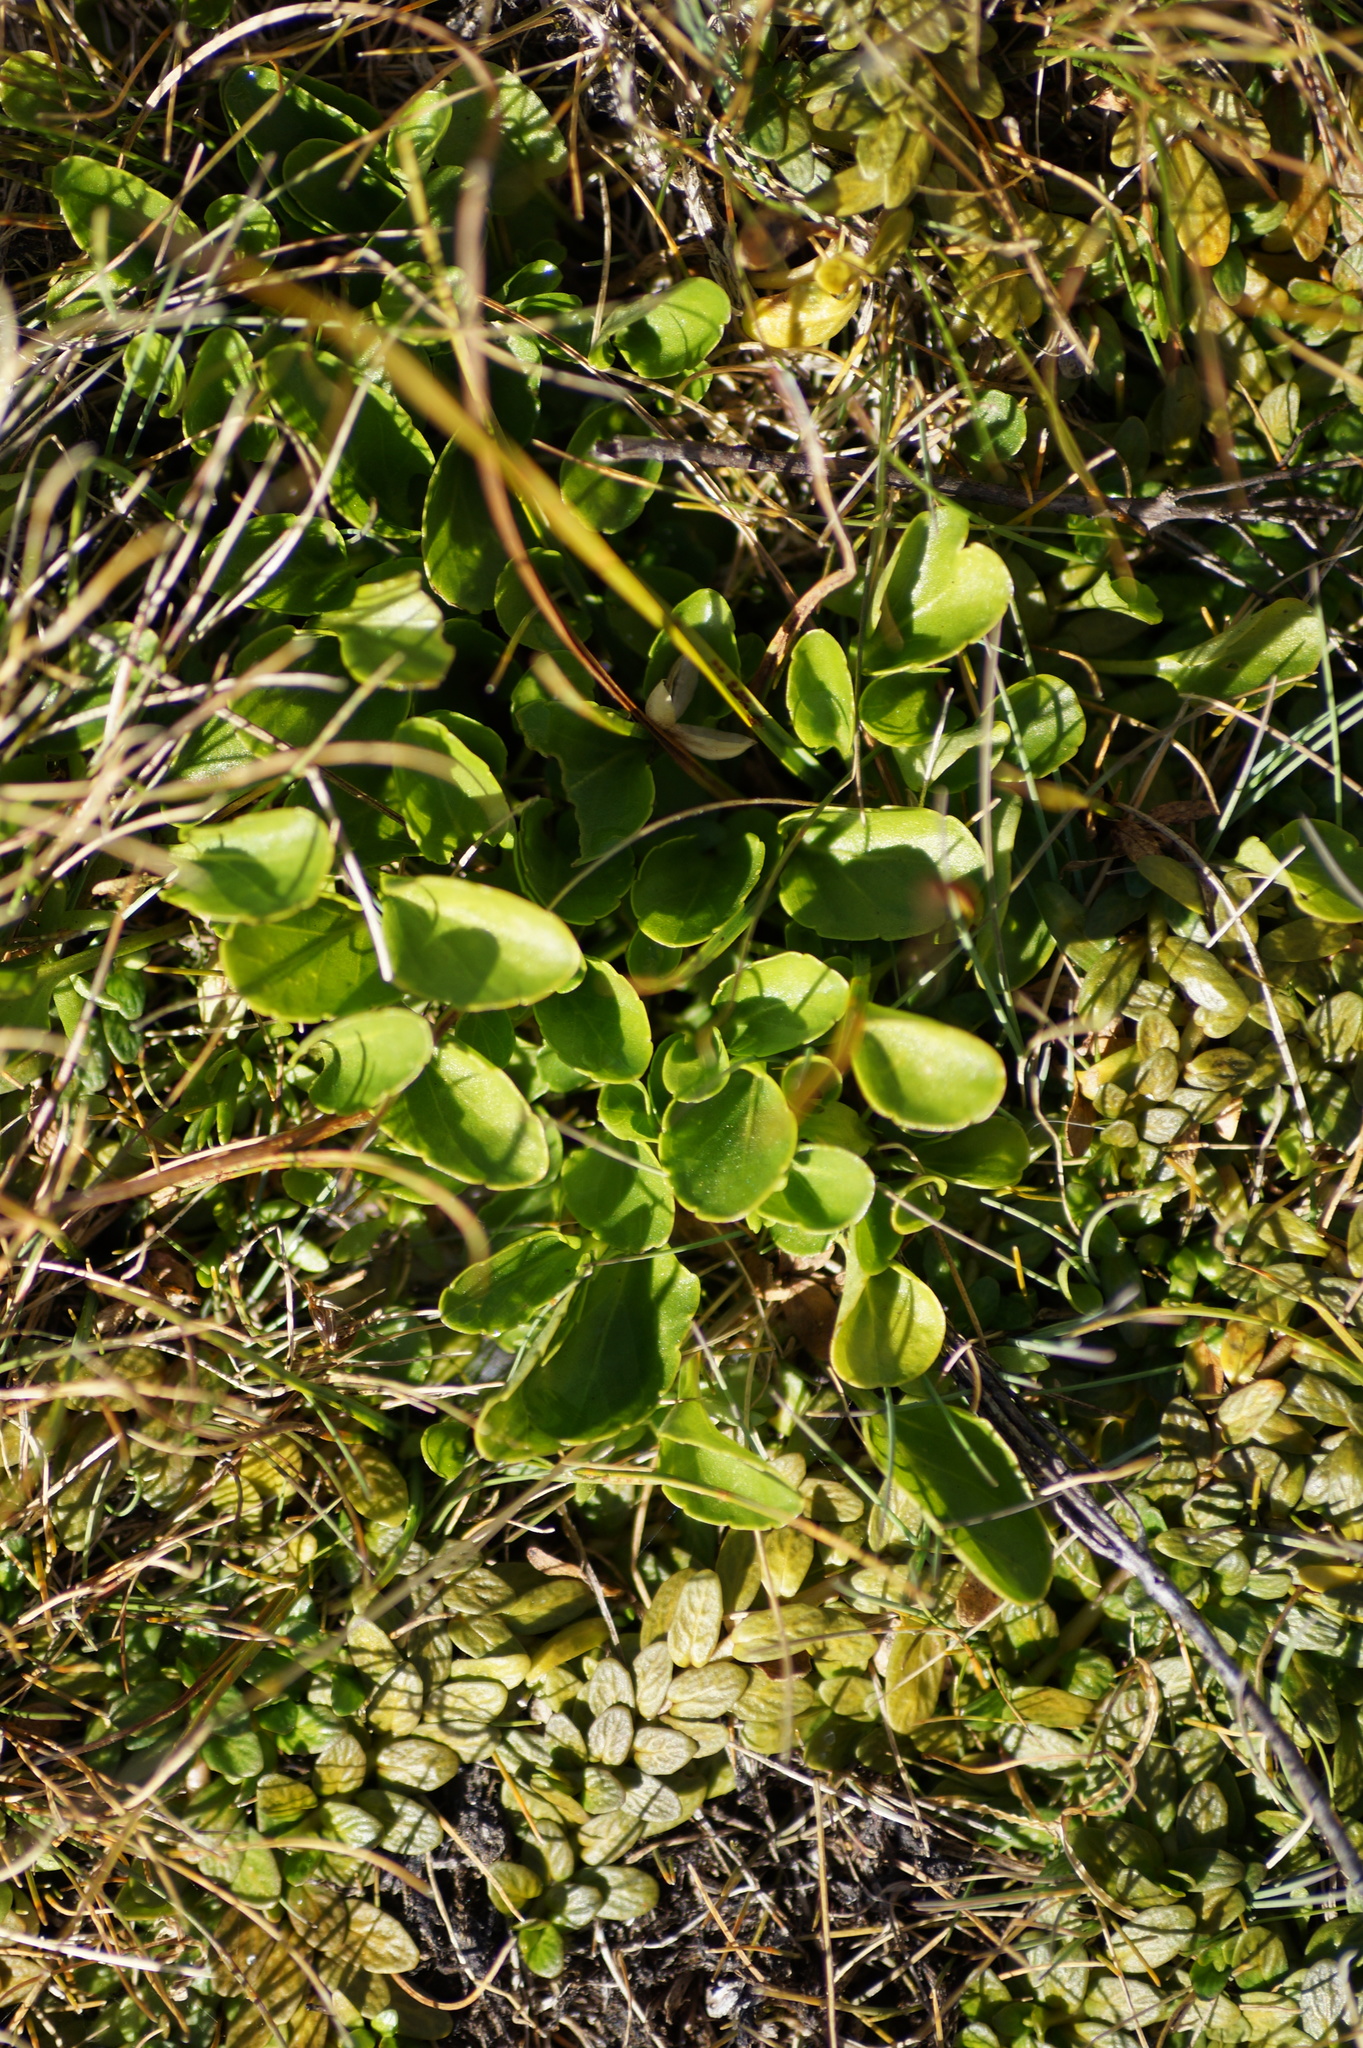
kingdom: Plantae
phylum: Tracheophyta
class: Magnoliopsida
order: Malpighiales
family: Violaceae
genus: Viola
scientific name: Viola cunninghamii
